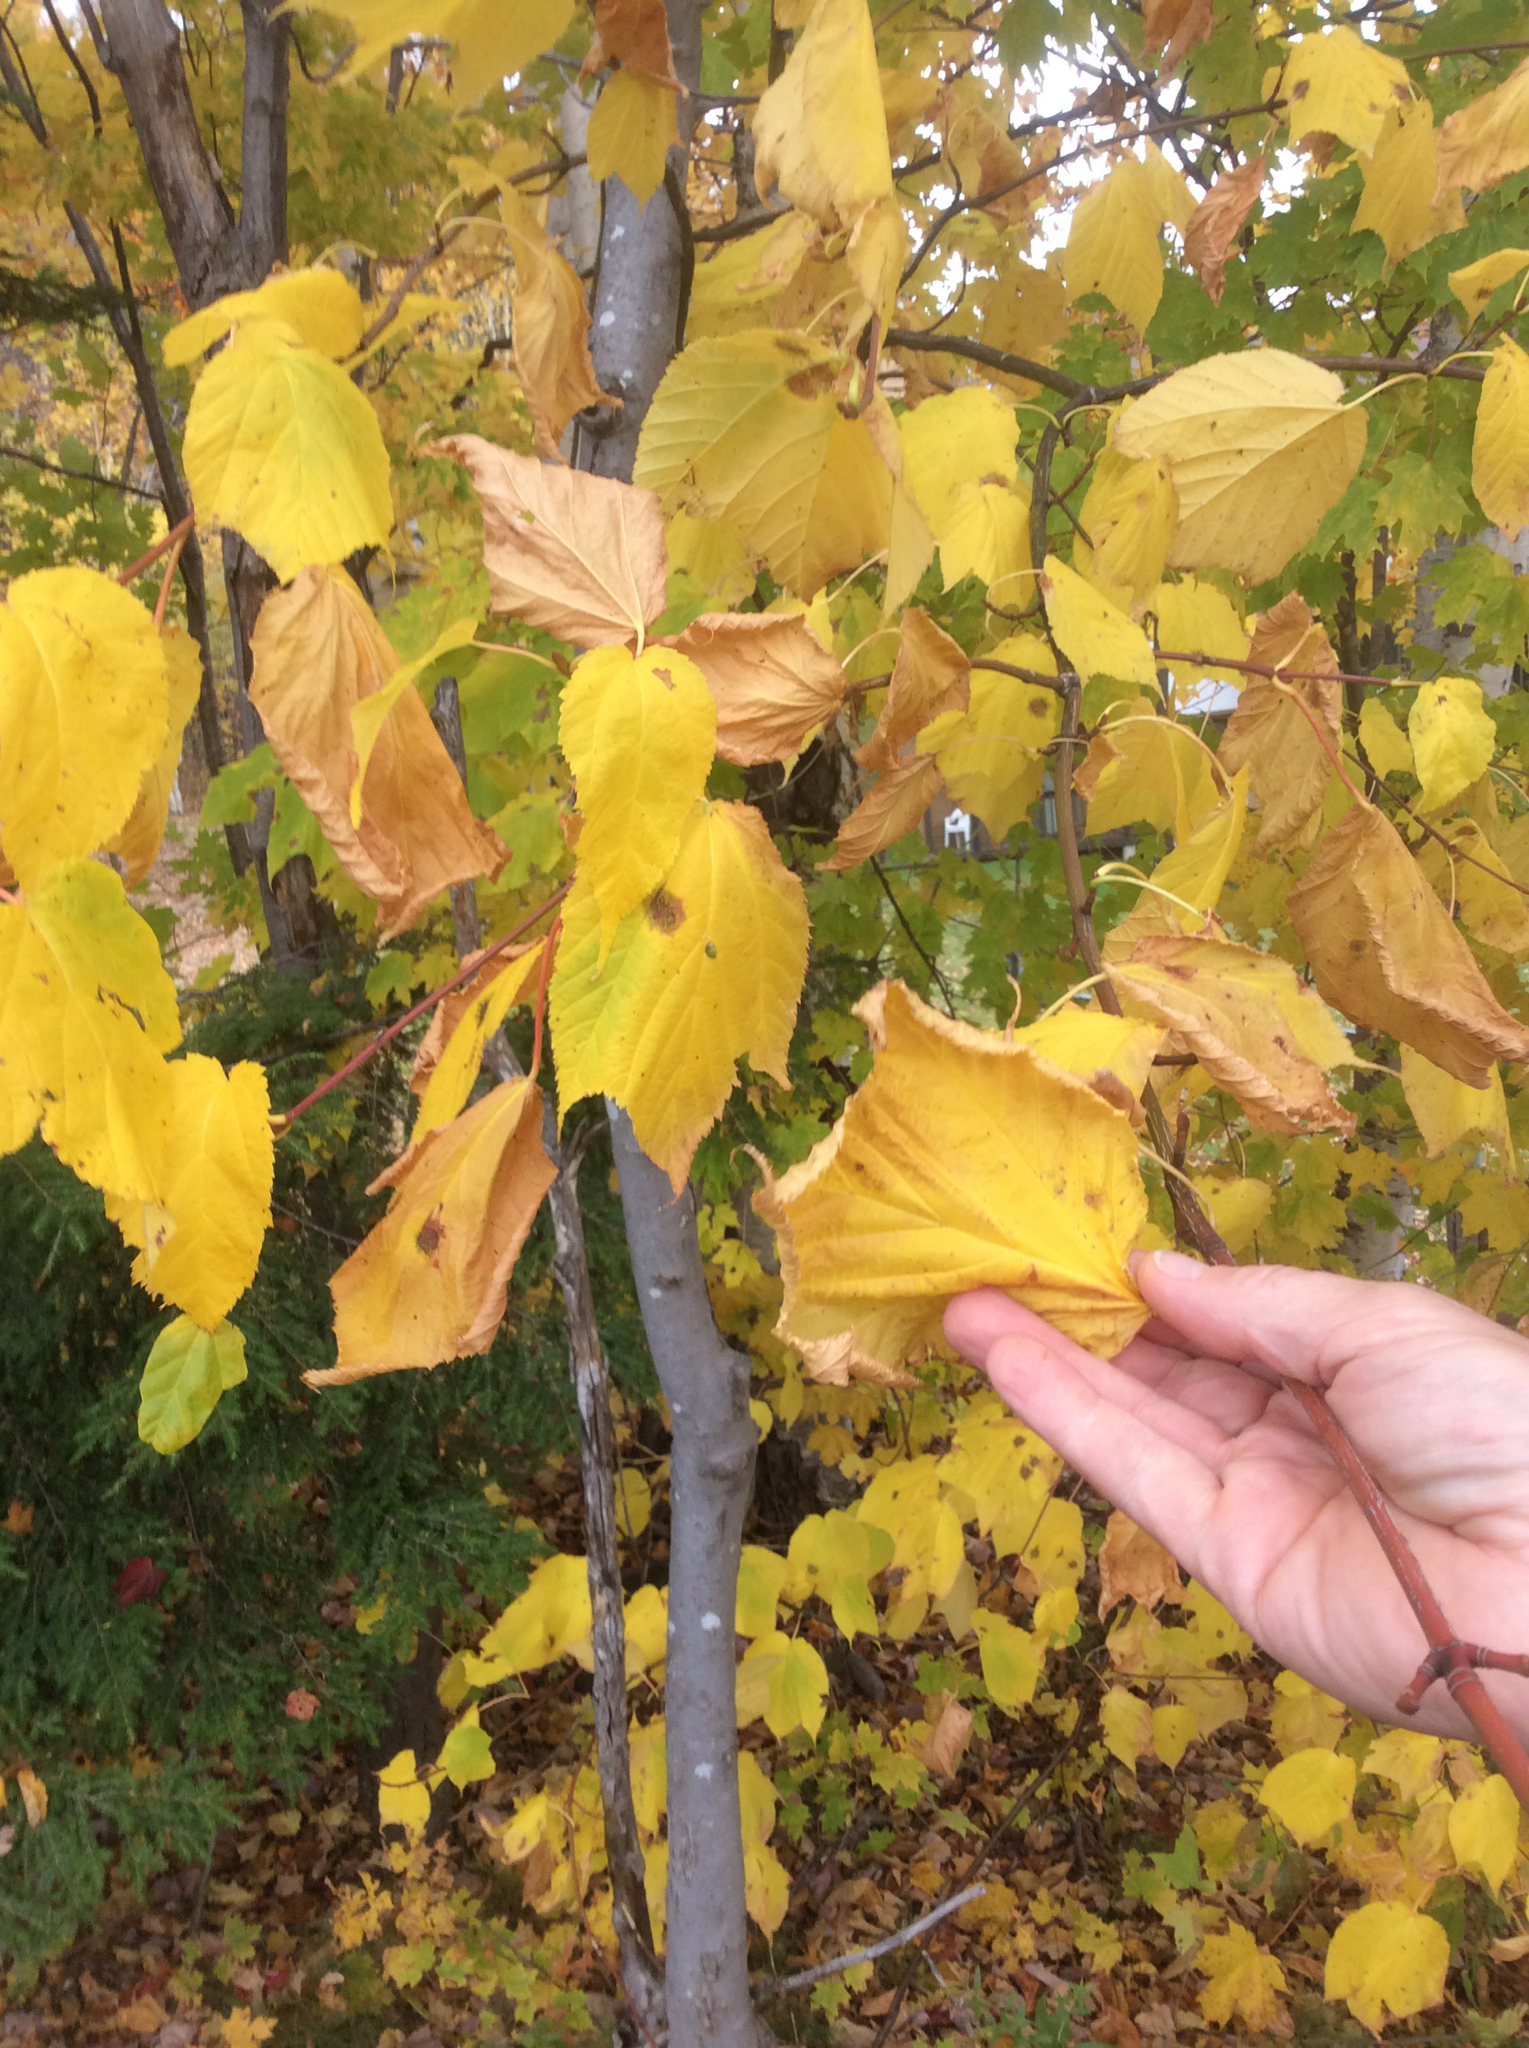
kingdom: Plantae
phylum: Tracheophyta
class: Magnoliopsida
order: Sapindales
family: Sapindaceae
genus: Acer
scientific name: Acer pensylvanicum
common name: Moosewood
